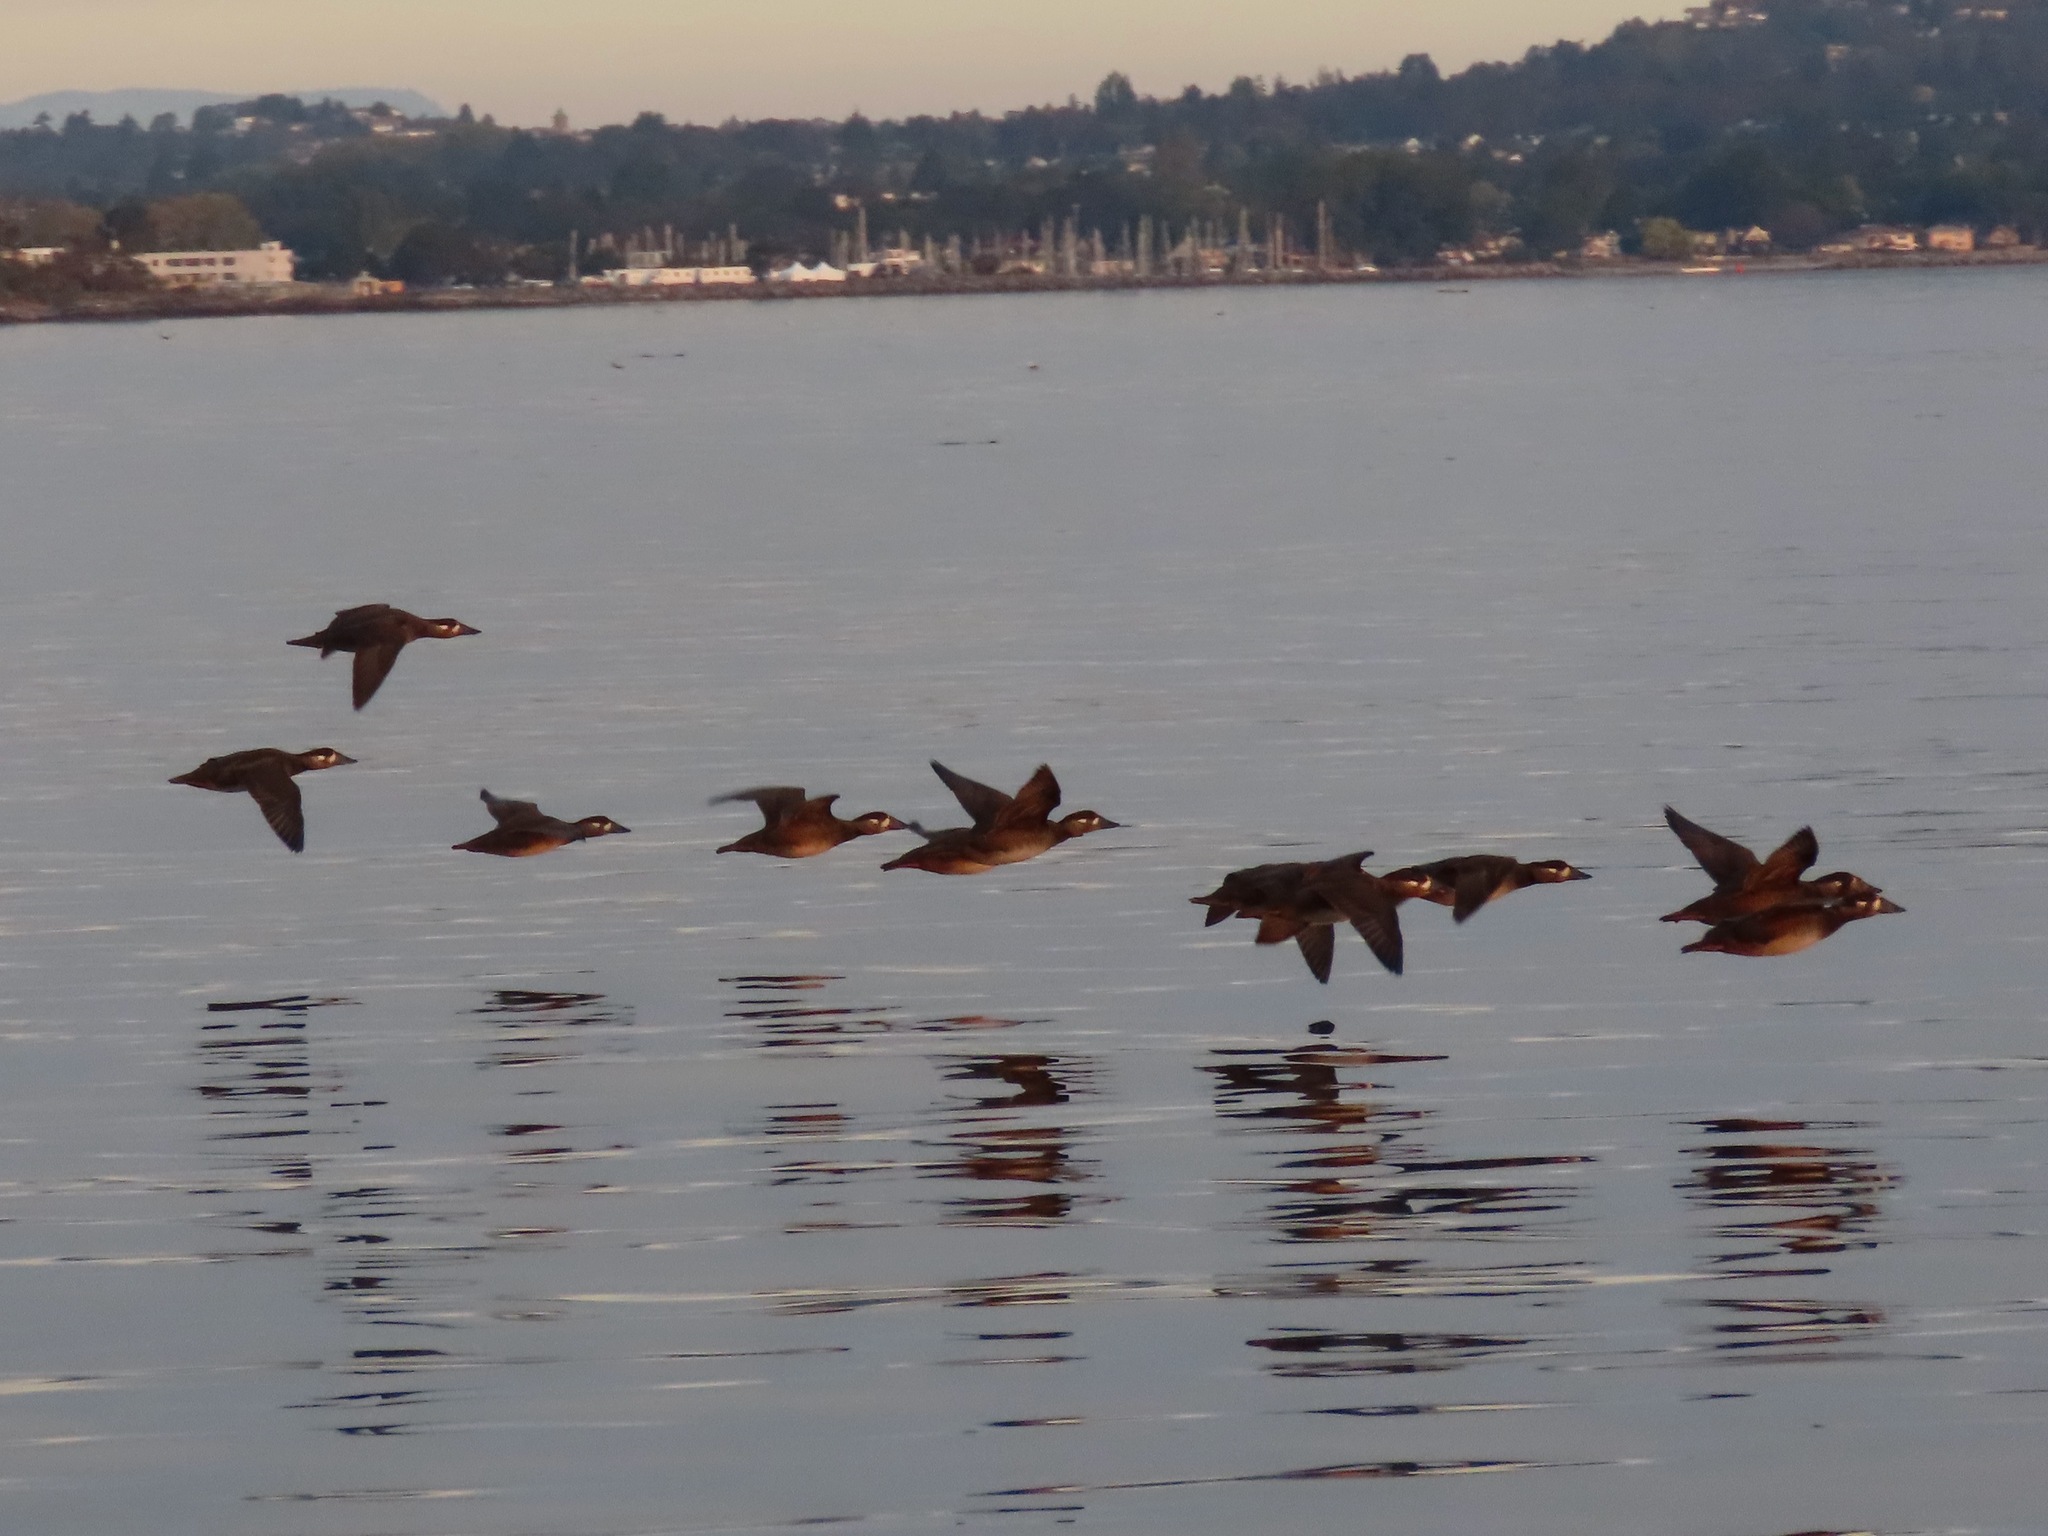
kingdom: Animalia
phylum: Chordata
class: Aves
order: Anseriformes
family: Anatidae
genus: Melanitta
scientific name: Melanitta perspicillata
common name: Surf scoter
